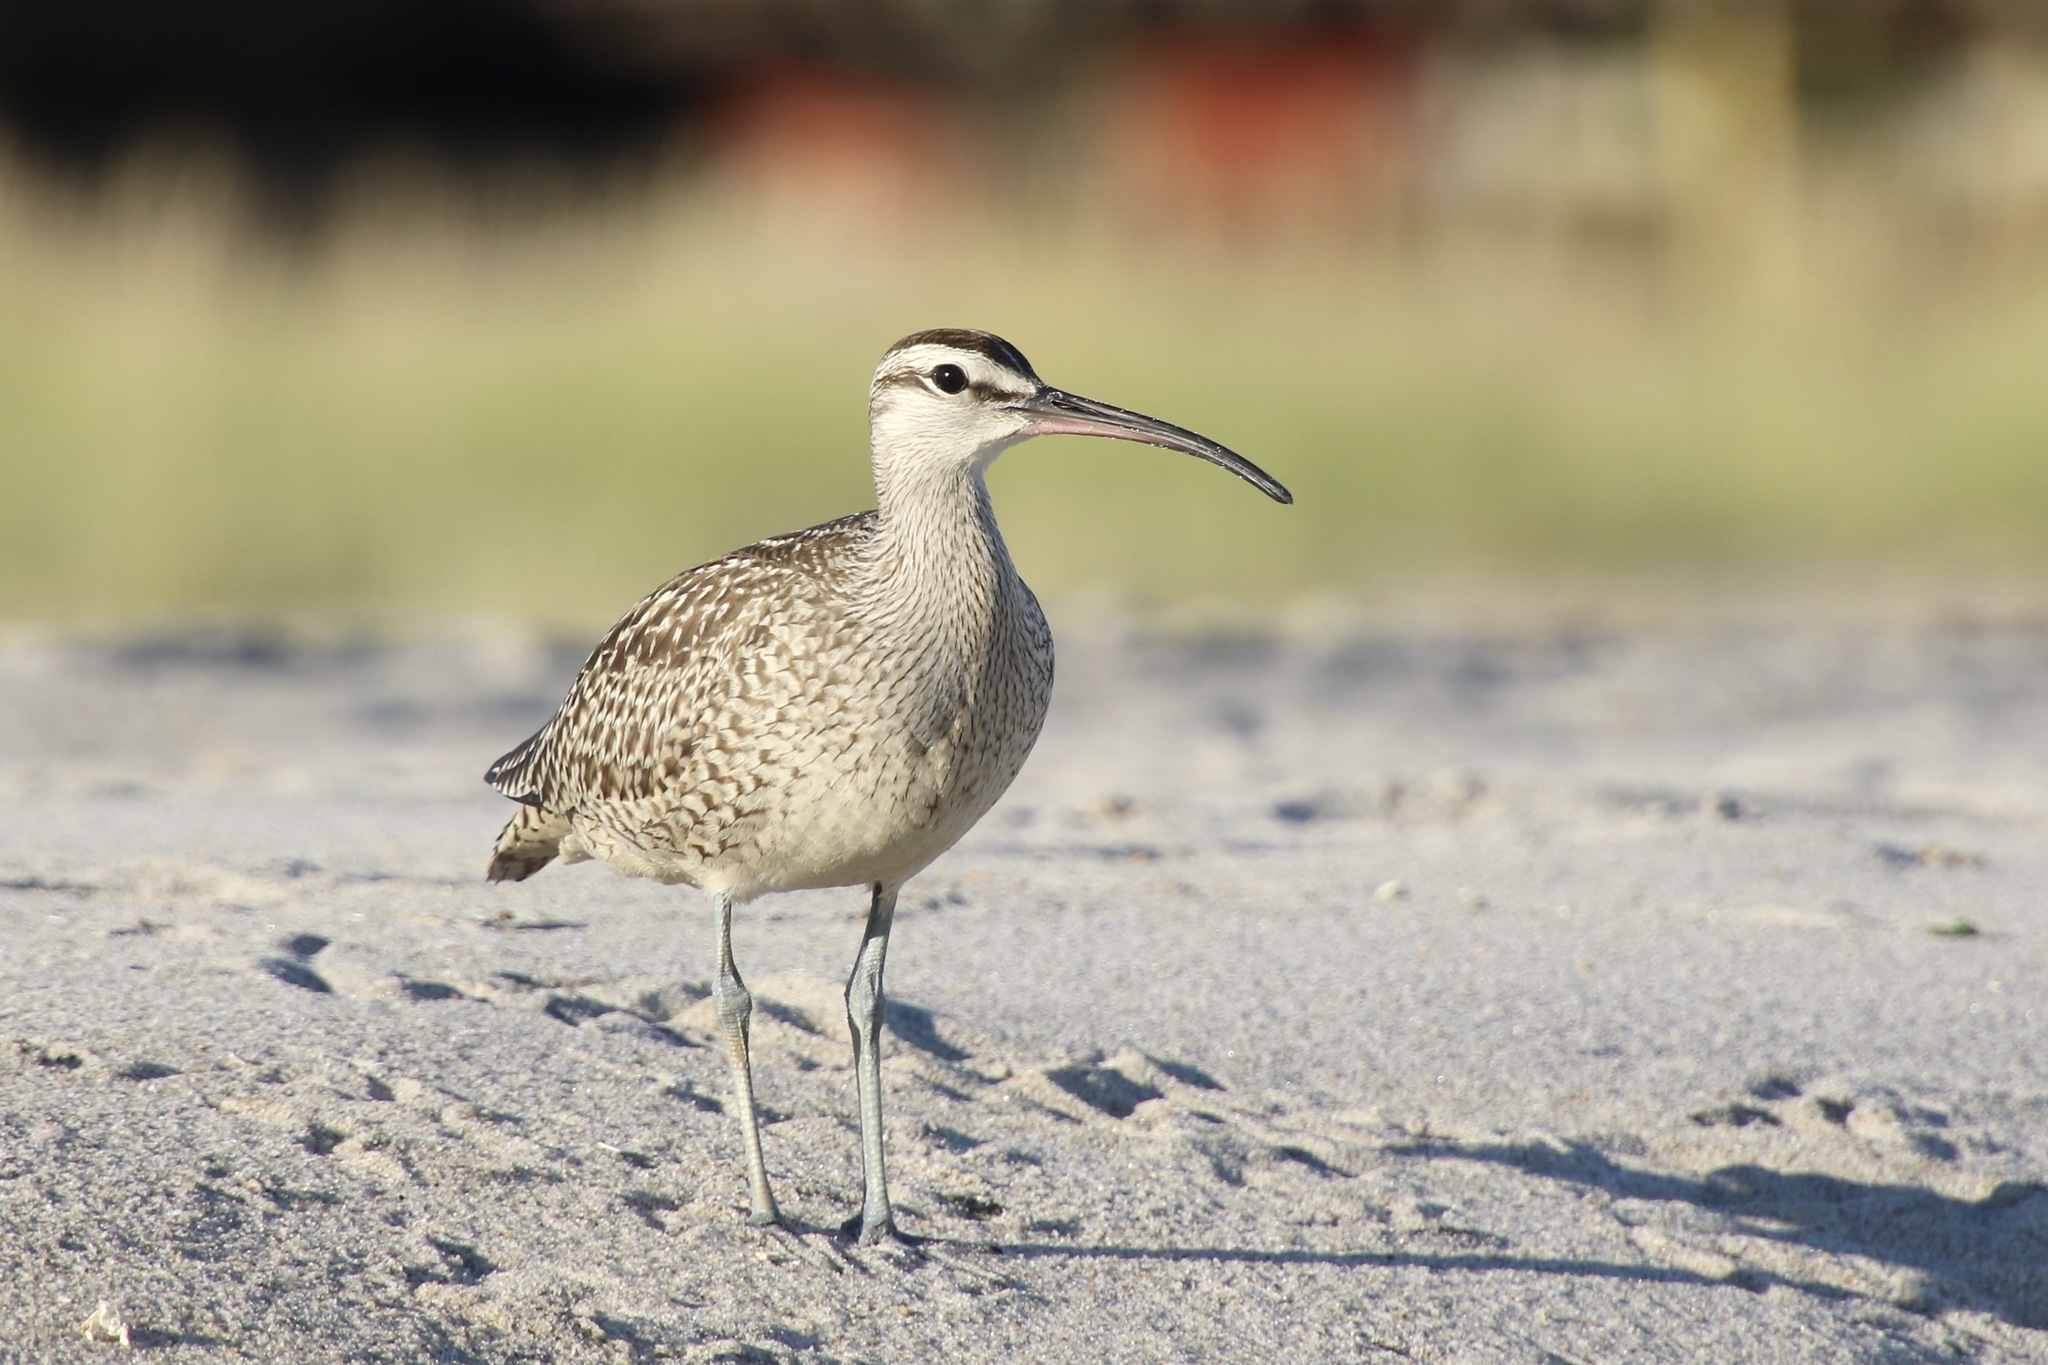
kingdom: Animalia
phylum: Chordata
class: Aves
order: Charadriiformes
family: Scolopacidae
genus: Numenius
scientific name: Numenius phaeopus
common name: Whimbrel
